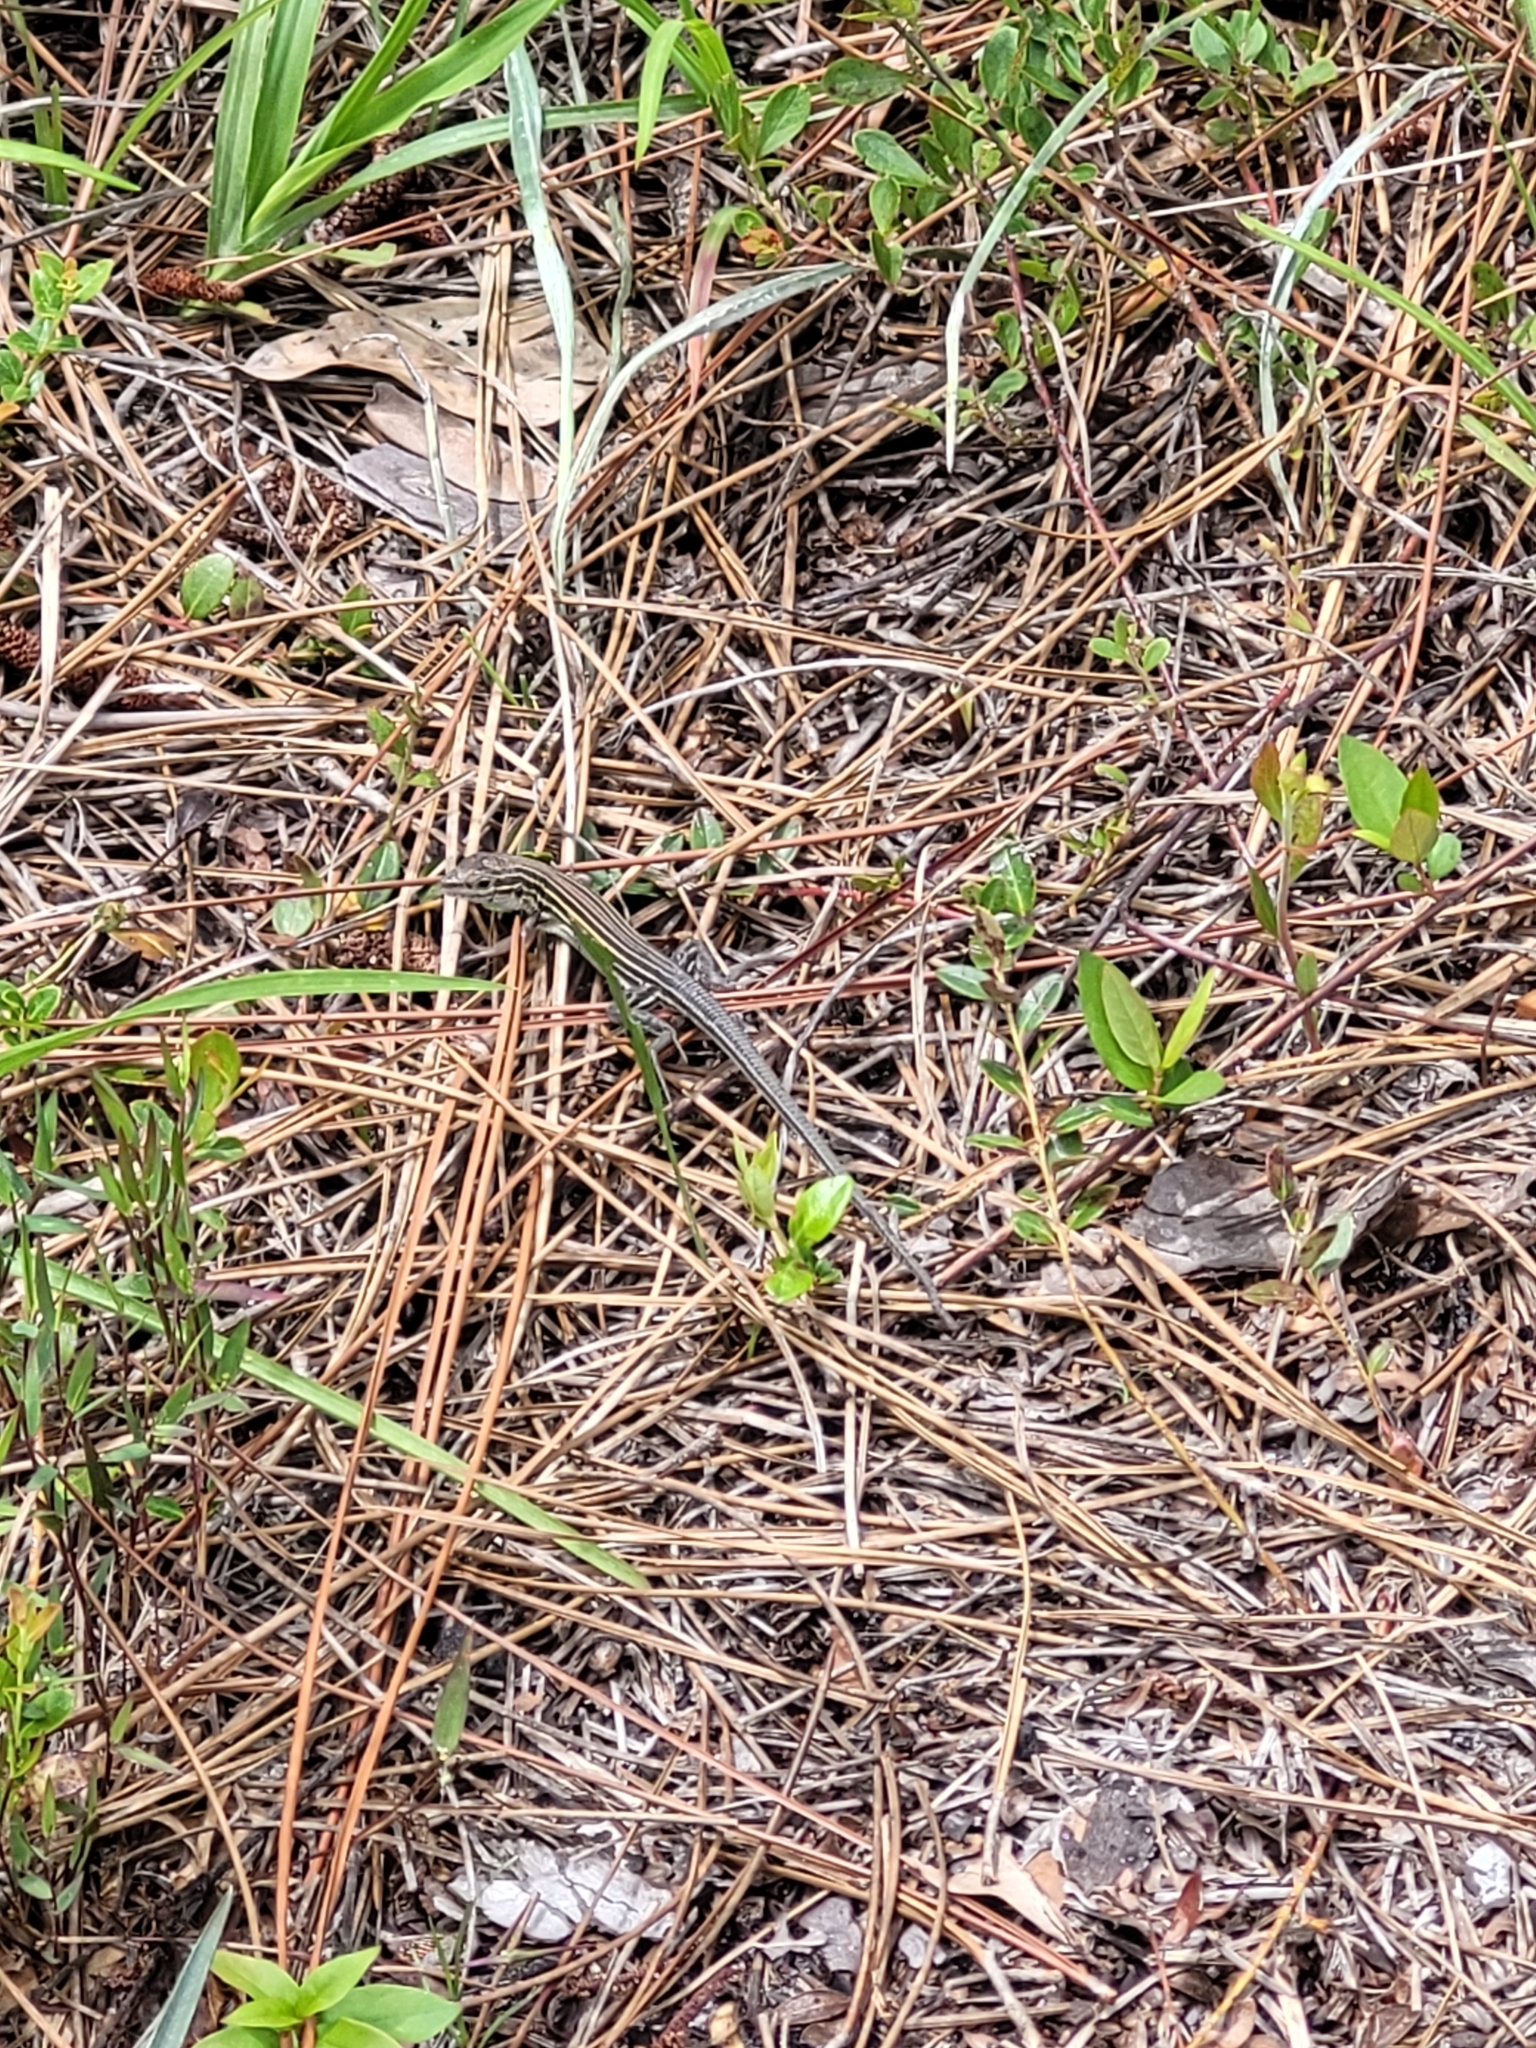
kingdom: Animalia
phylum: Chordata
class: Squamata
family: Teiidae
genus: Aspidoscelis
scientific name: Aspidoscelis sexlineatus
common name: Six-lined racerunner
